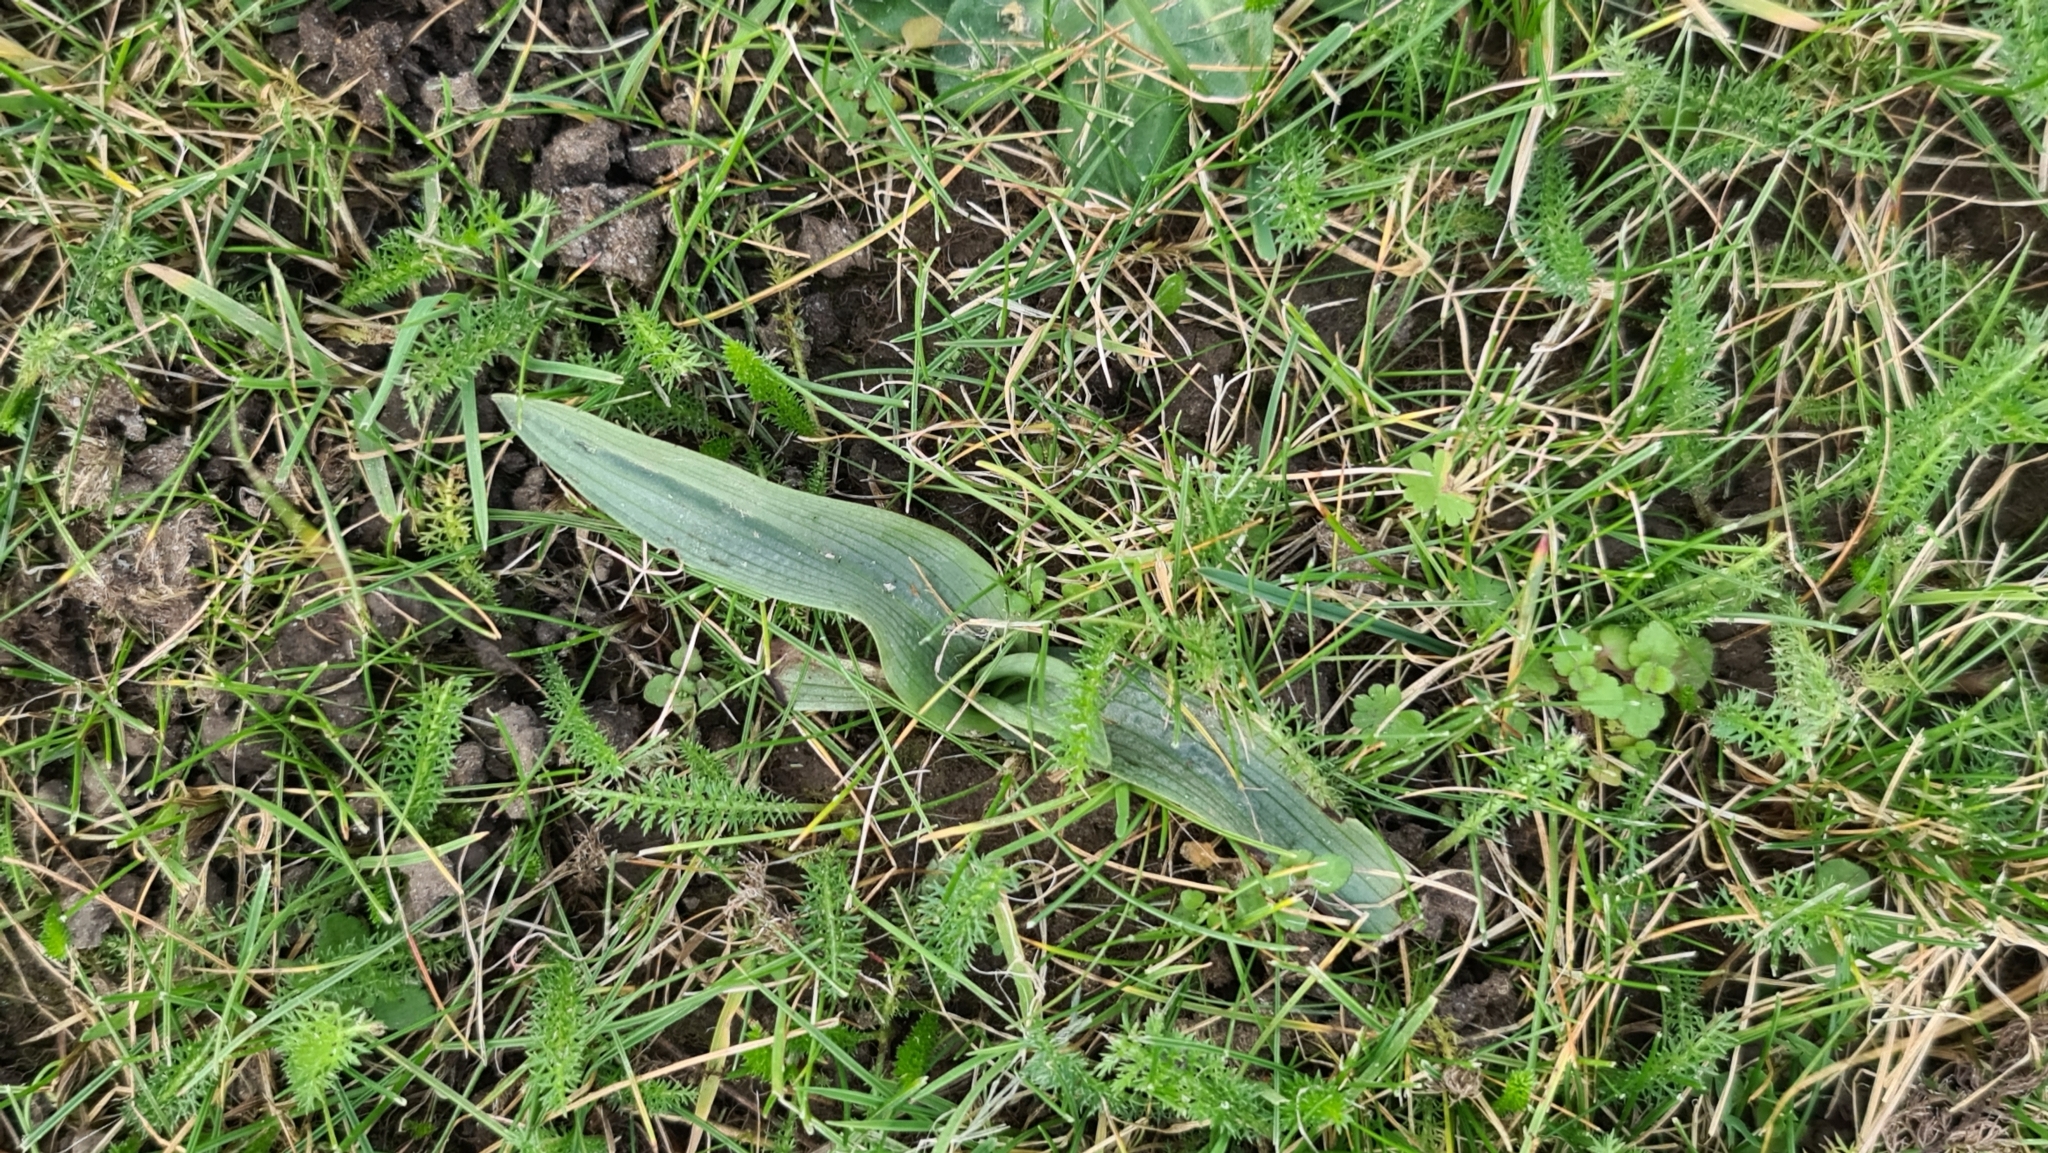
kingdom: Plantae
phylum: Tracheophyta
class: Liliopsida
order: Asparagales
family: Orchidaceae
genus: Ophrys
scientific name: Ophrys apifera
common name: Bee orchid
